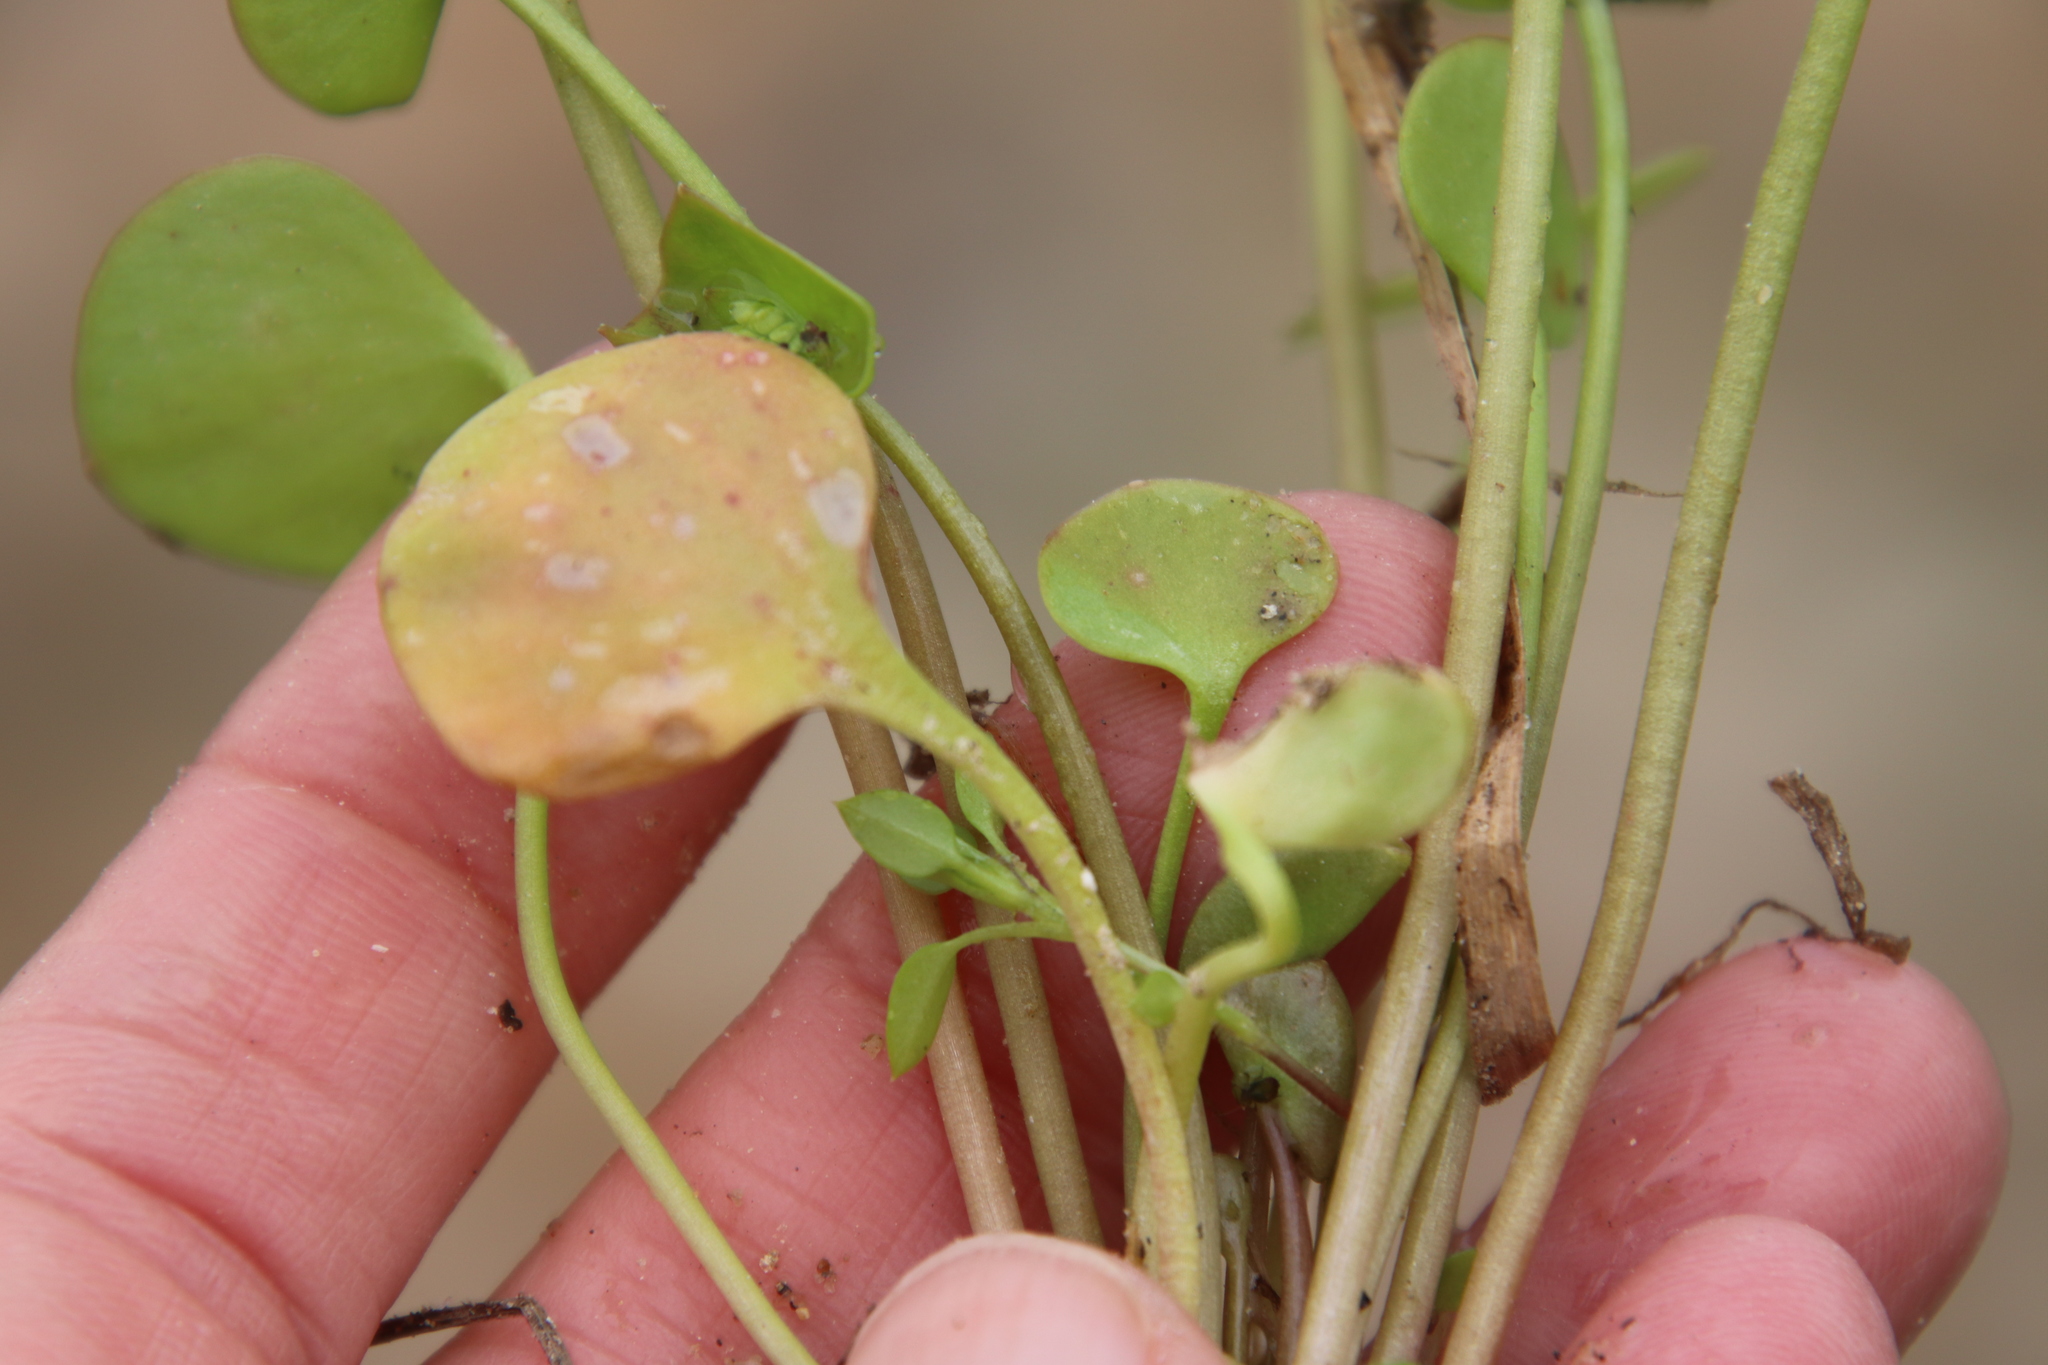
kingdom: Plantae
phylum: Tracheophyta
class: Magnoliopsida
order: Caryophyllales
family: Montiaceae
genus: Claytonia
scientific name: Claytonia perfoliata
